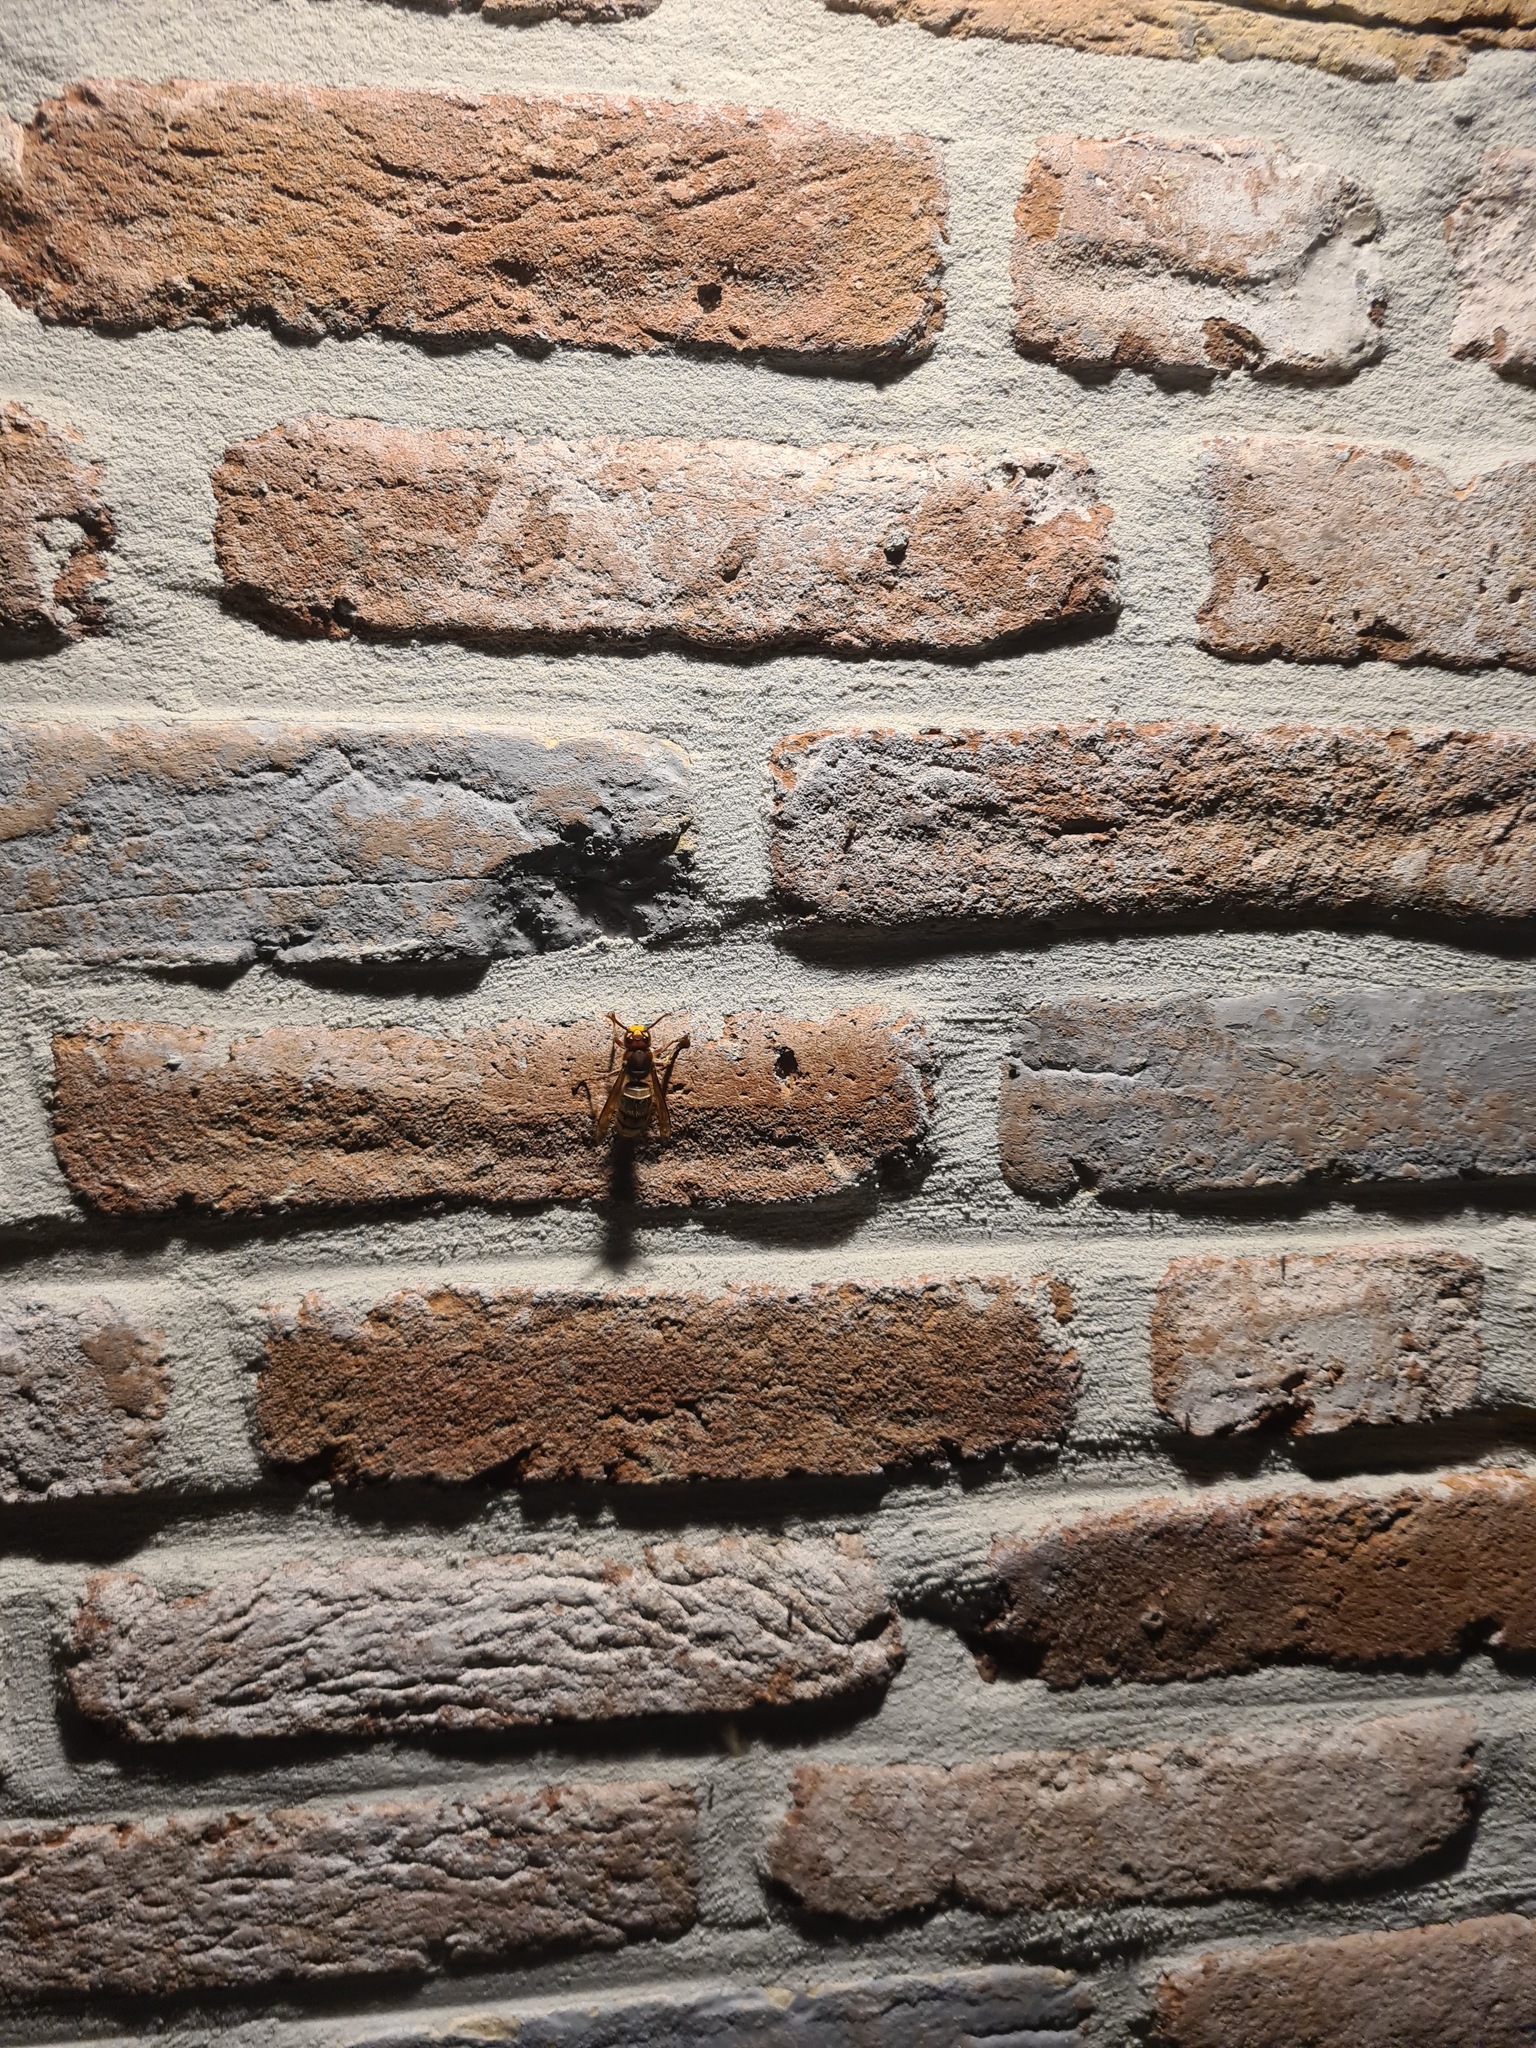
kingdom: Animalia
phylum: Arthropoda
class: Insecta
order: Hymenoptera
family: Vespidae
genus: Vespa
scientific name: Vespa crabro
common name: Hornet
